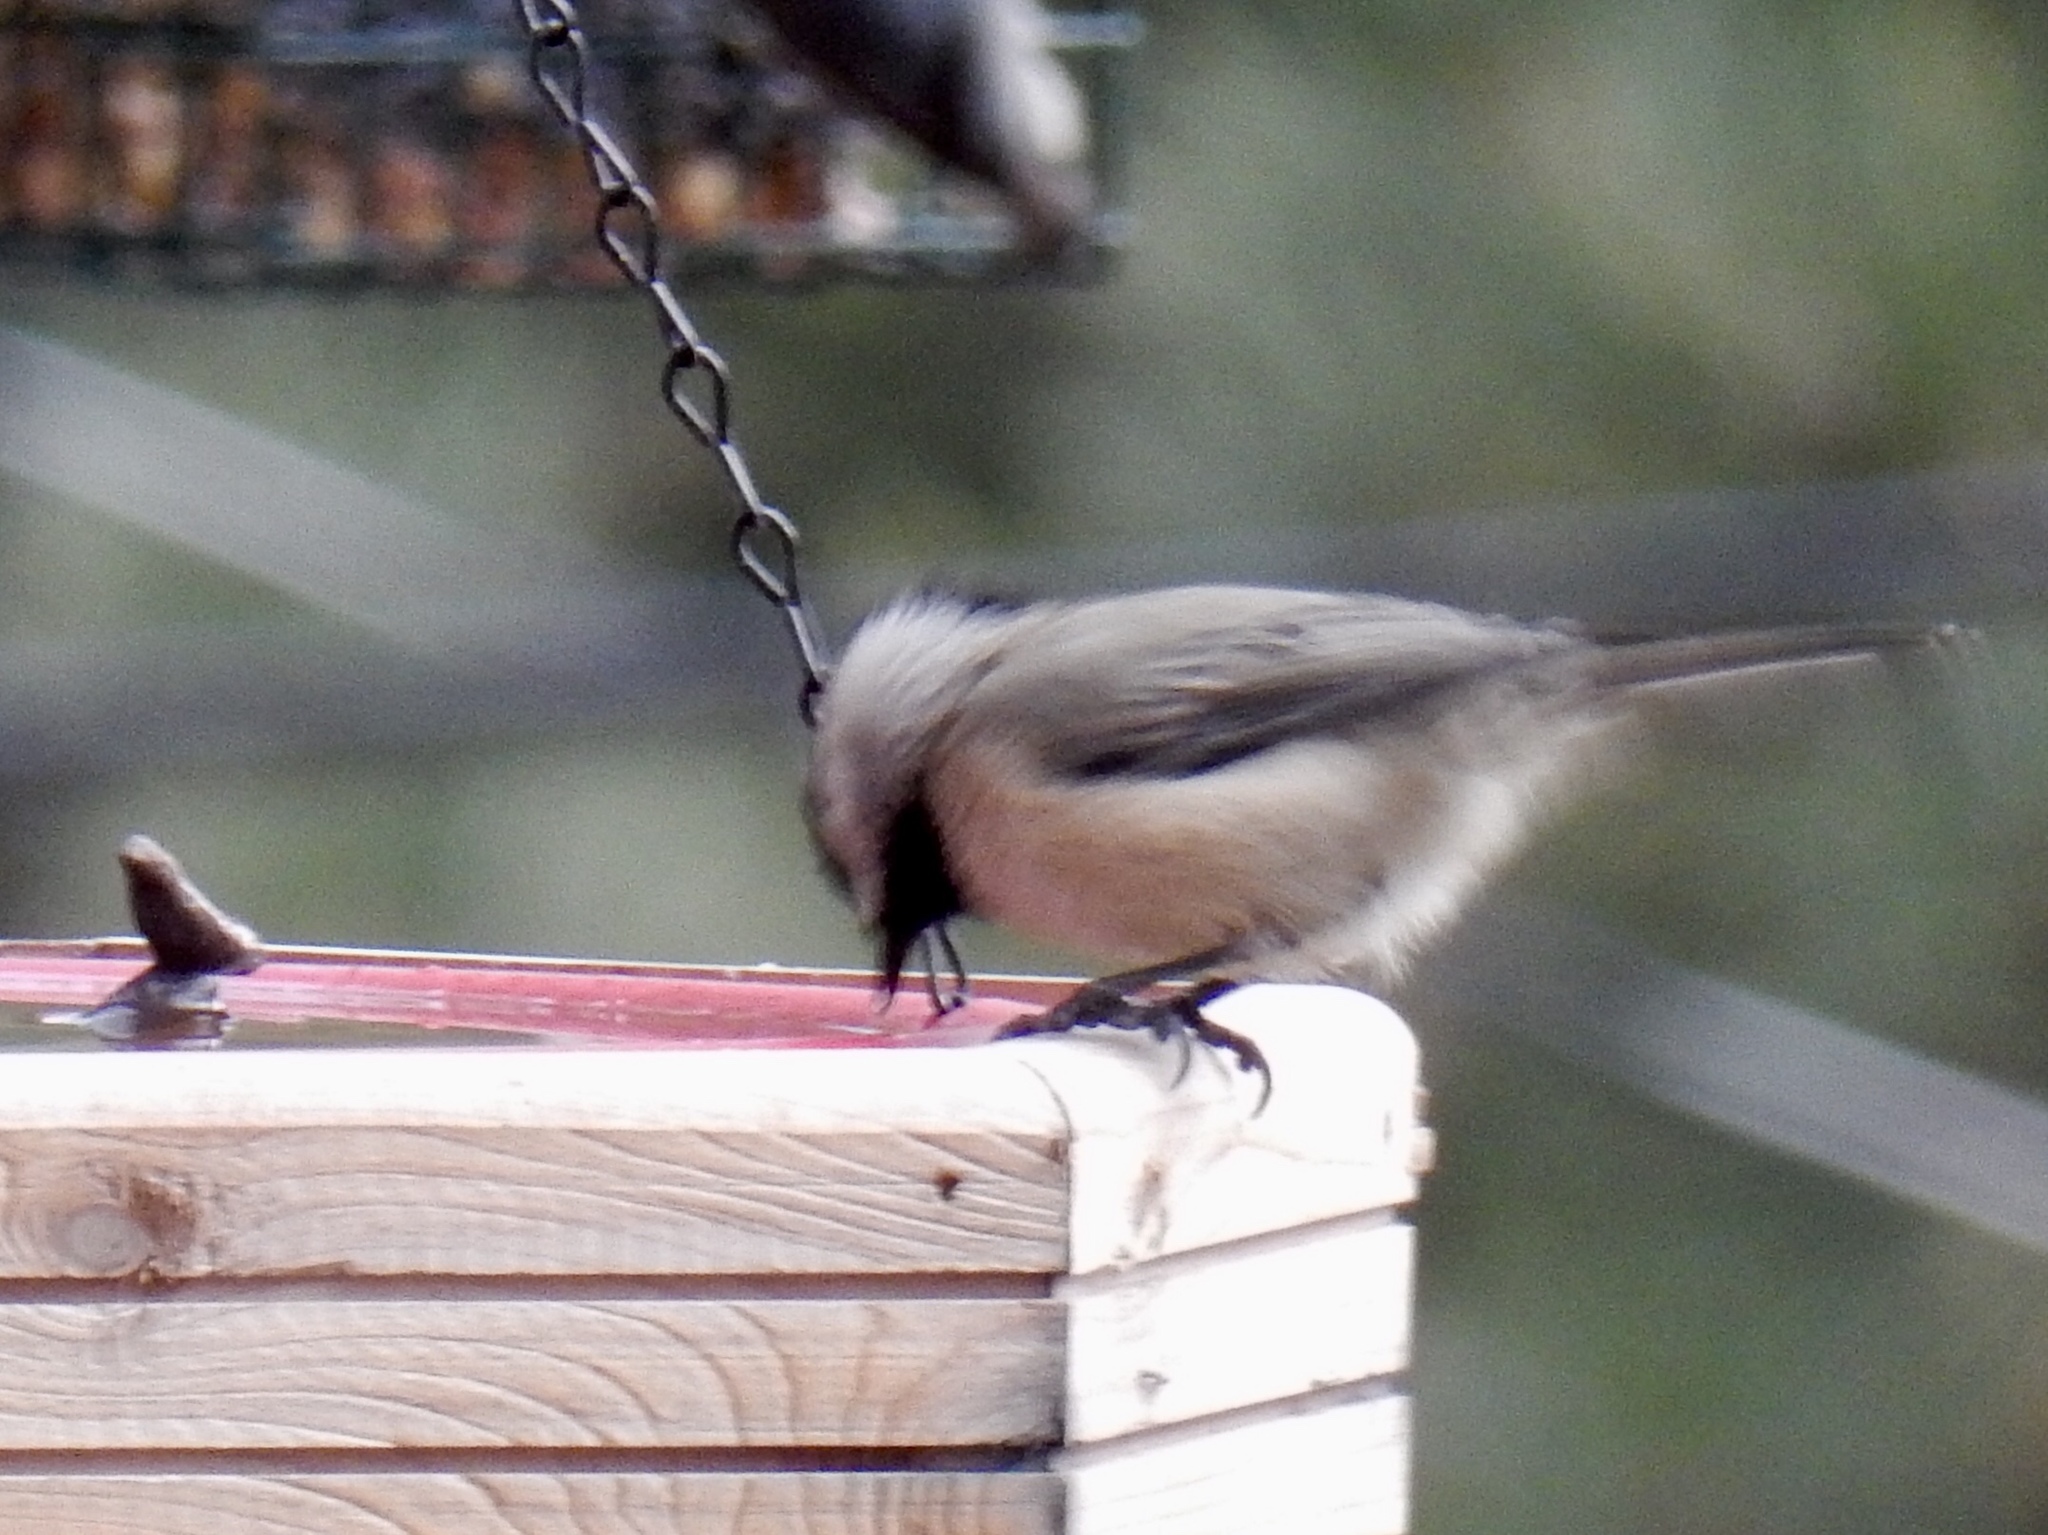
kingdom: Animalia
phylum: Chordata
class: Aves
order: Passeriformes
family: Paridae
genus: Poecile
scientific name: Poecile gambeli
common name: Mountain chickadee
